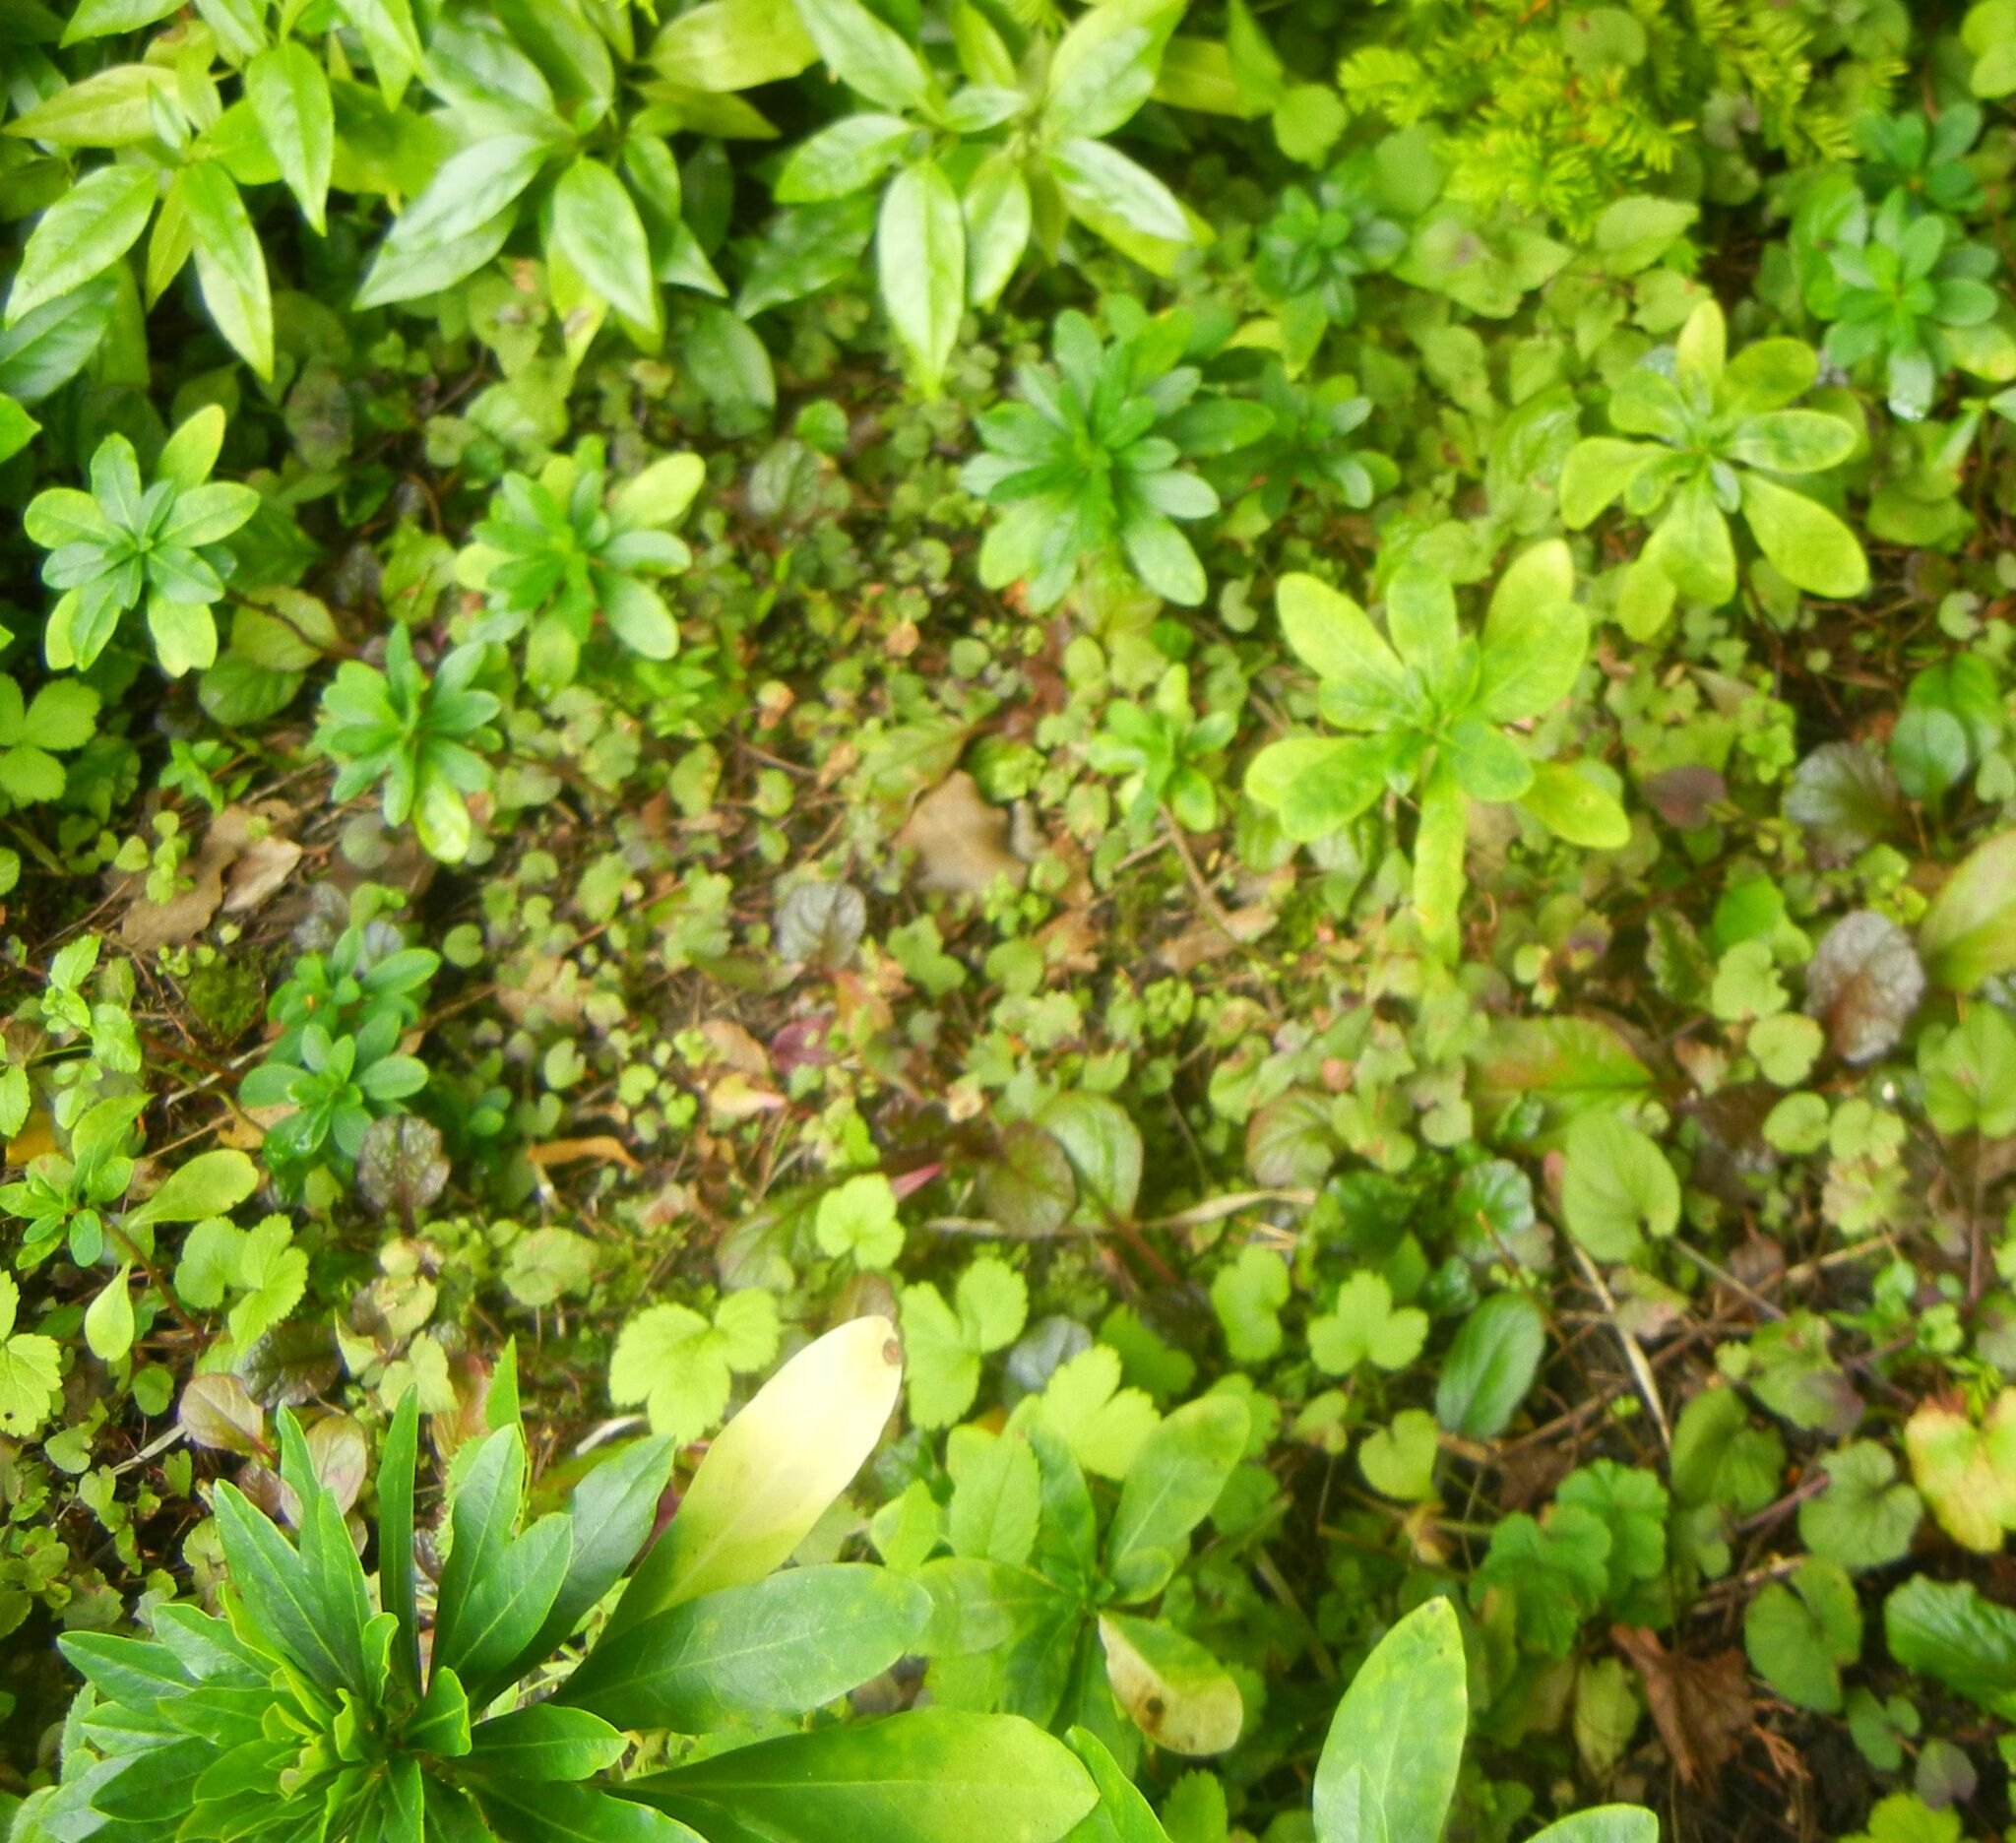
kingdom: Plantae
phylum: Tracheophyta
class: Magnoliopsida
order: Malpighiales
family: Euphorbiaceae
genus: Euphorbia
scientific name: Euphorbia amygdaloides
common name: Wood spurge
